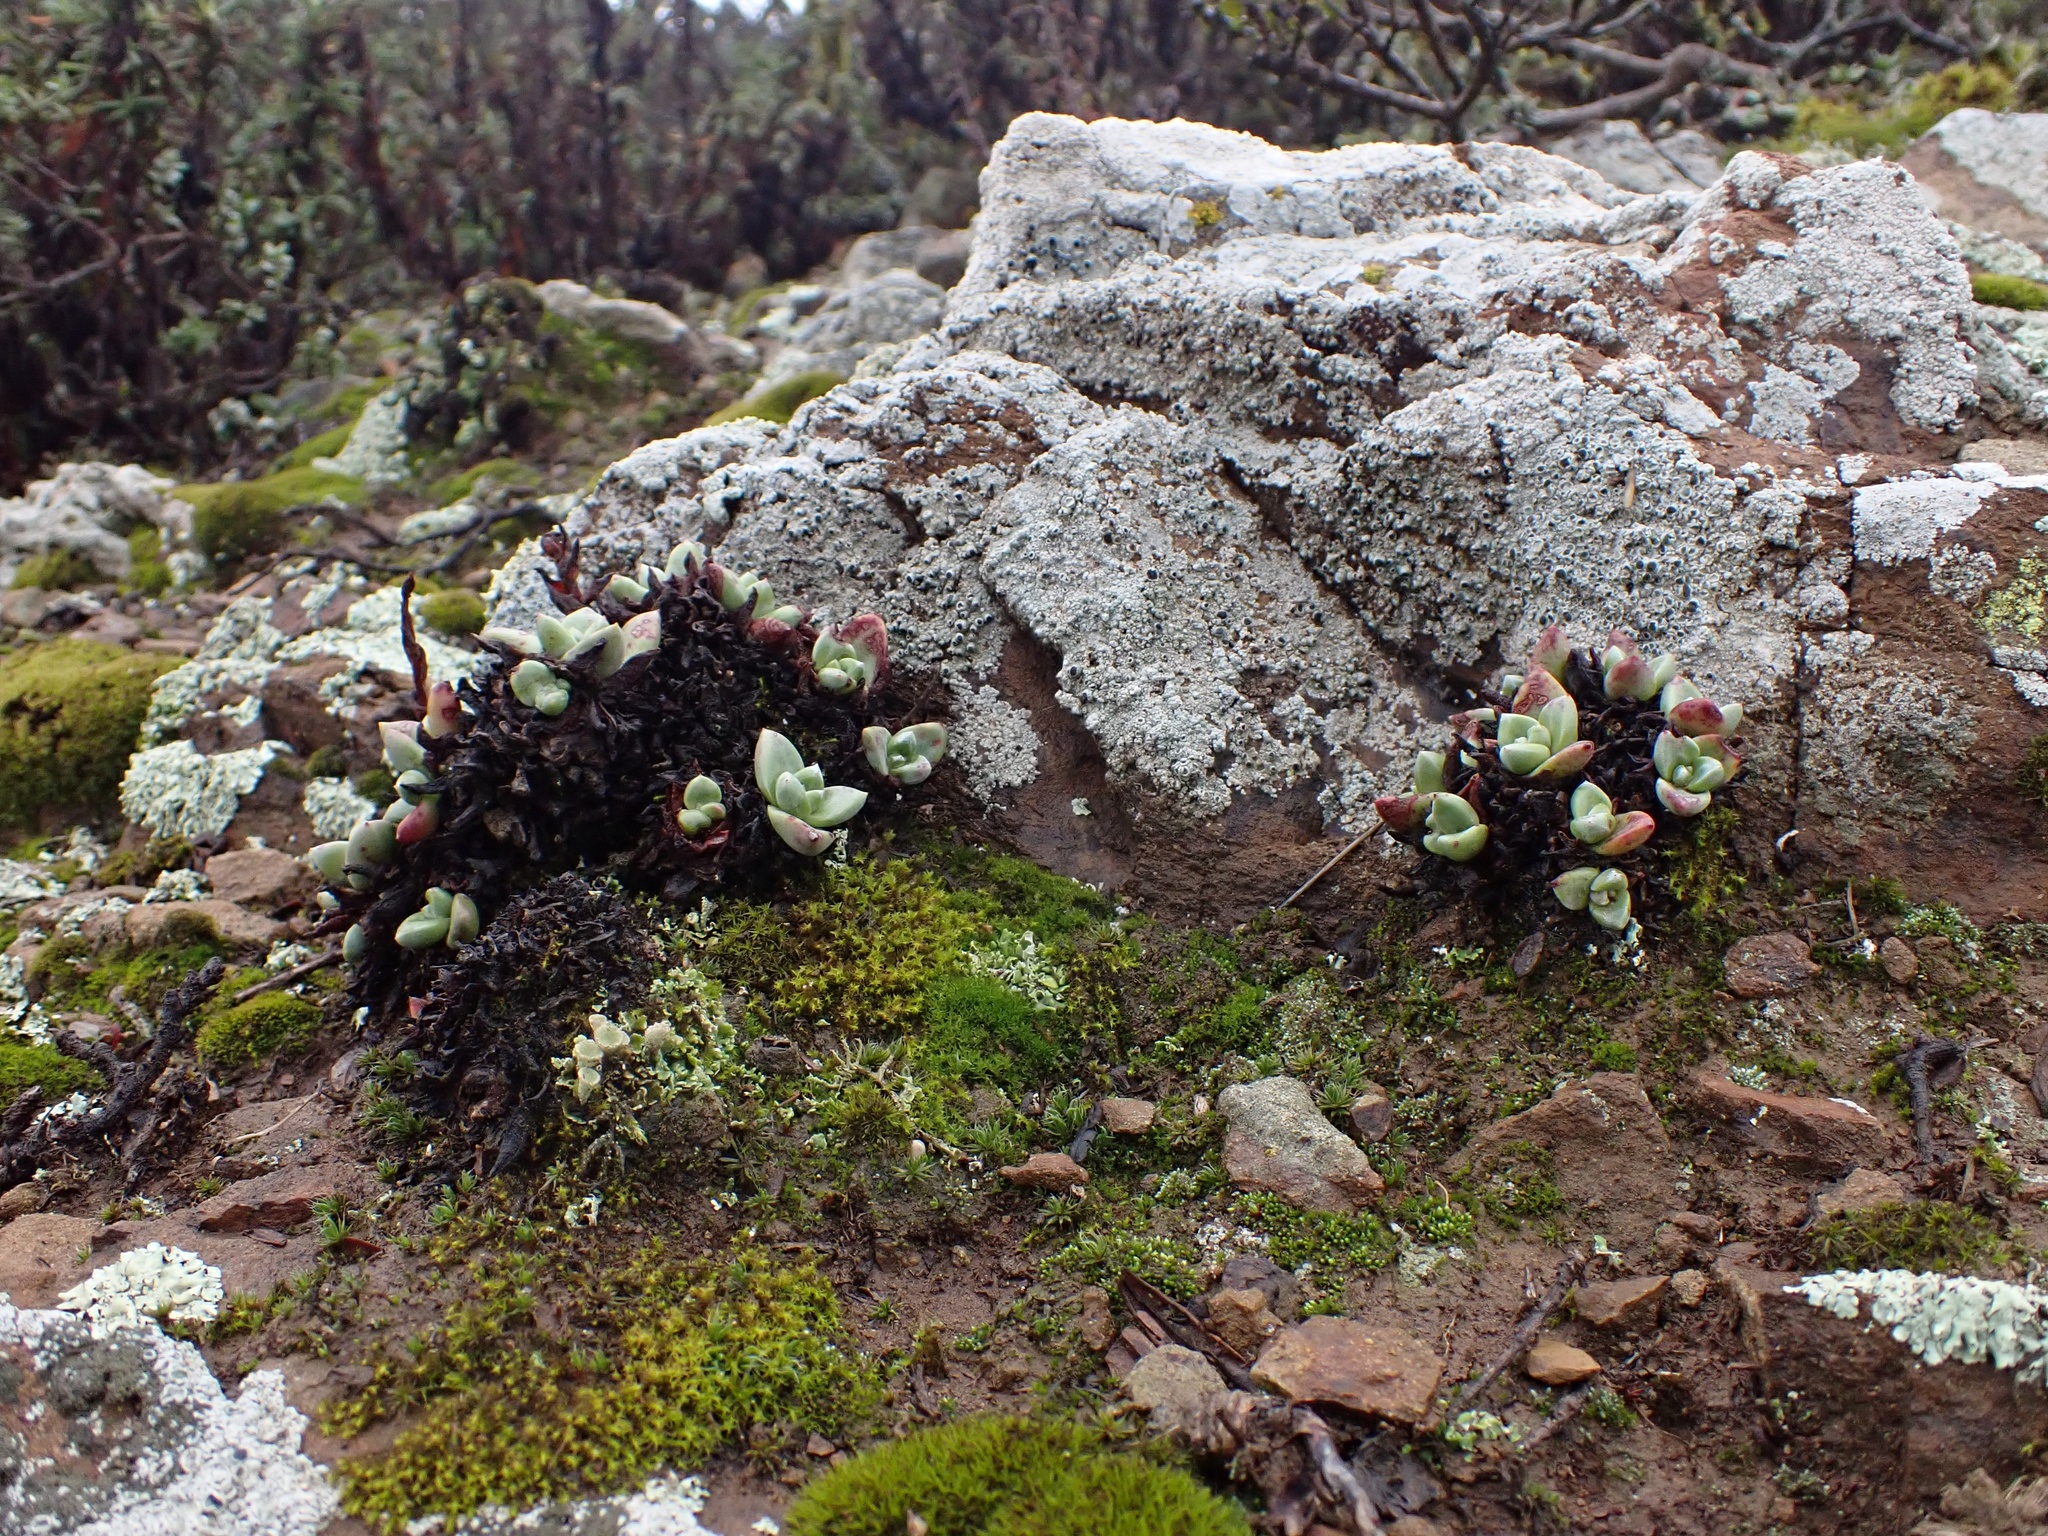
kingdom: Plantae
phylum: Tracheophyta
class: Magnoliopsida
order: Saxifragales
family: Crassulaceae
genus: Dudleya
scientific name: Dudleya farinosa
